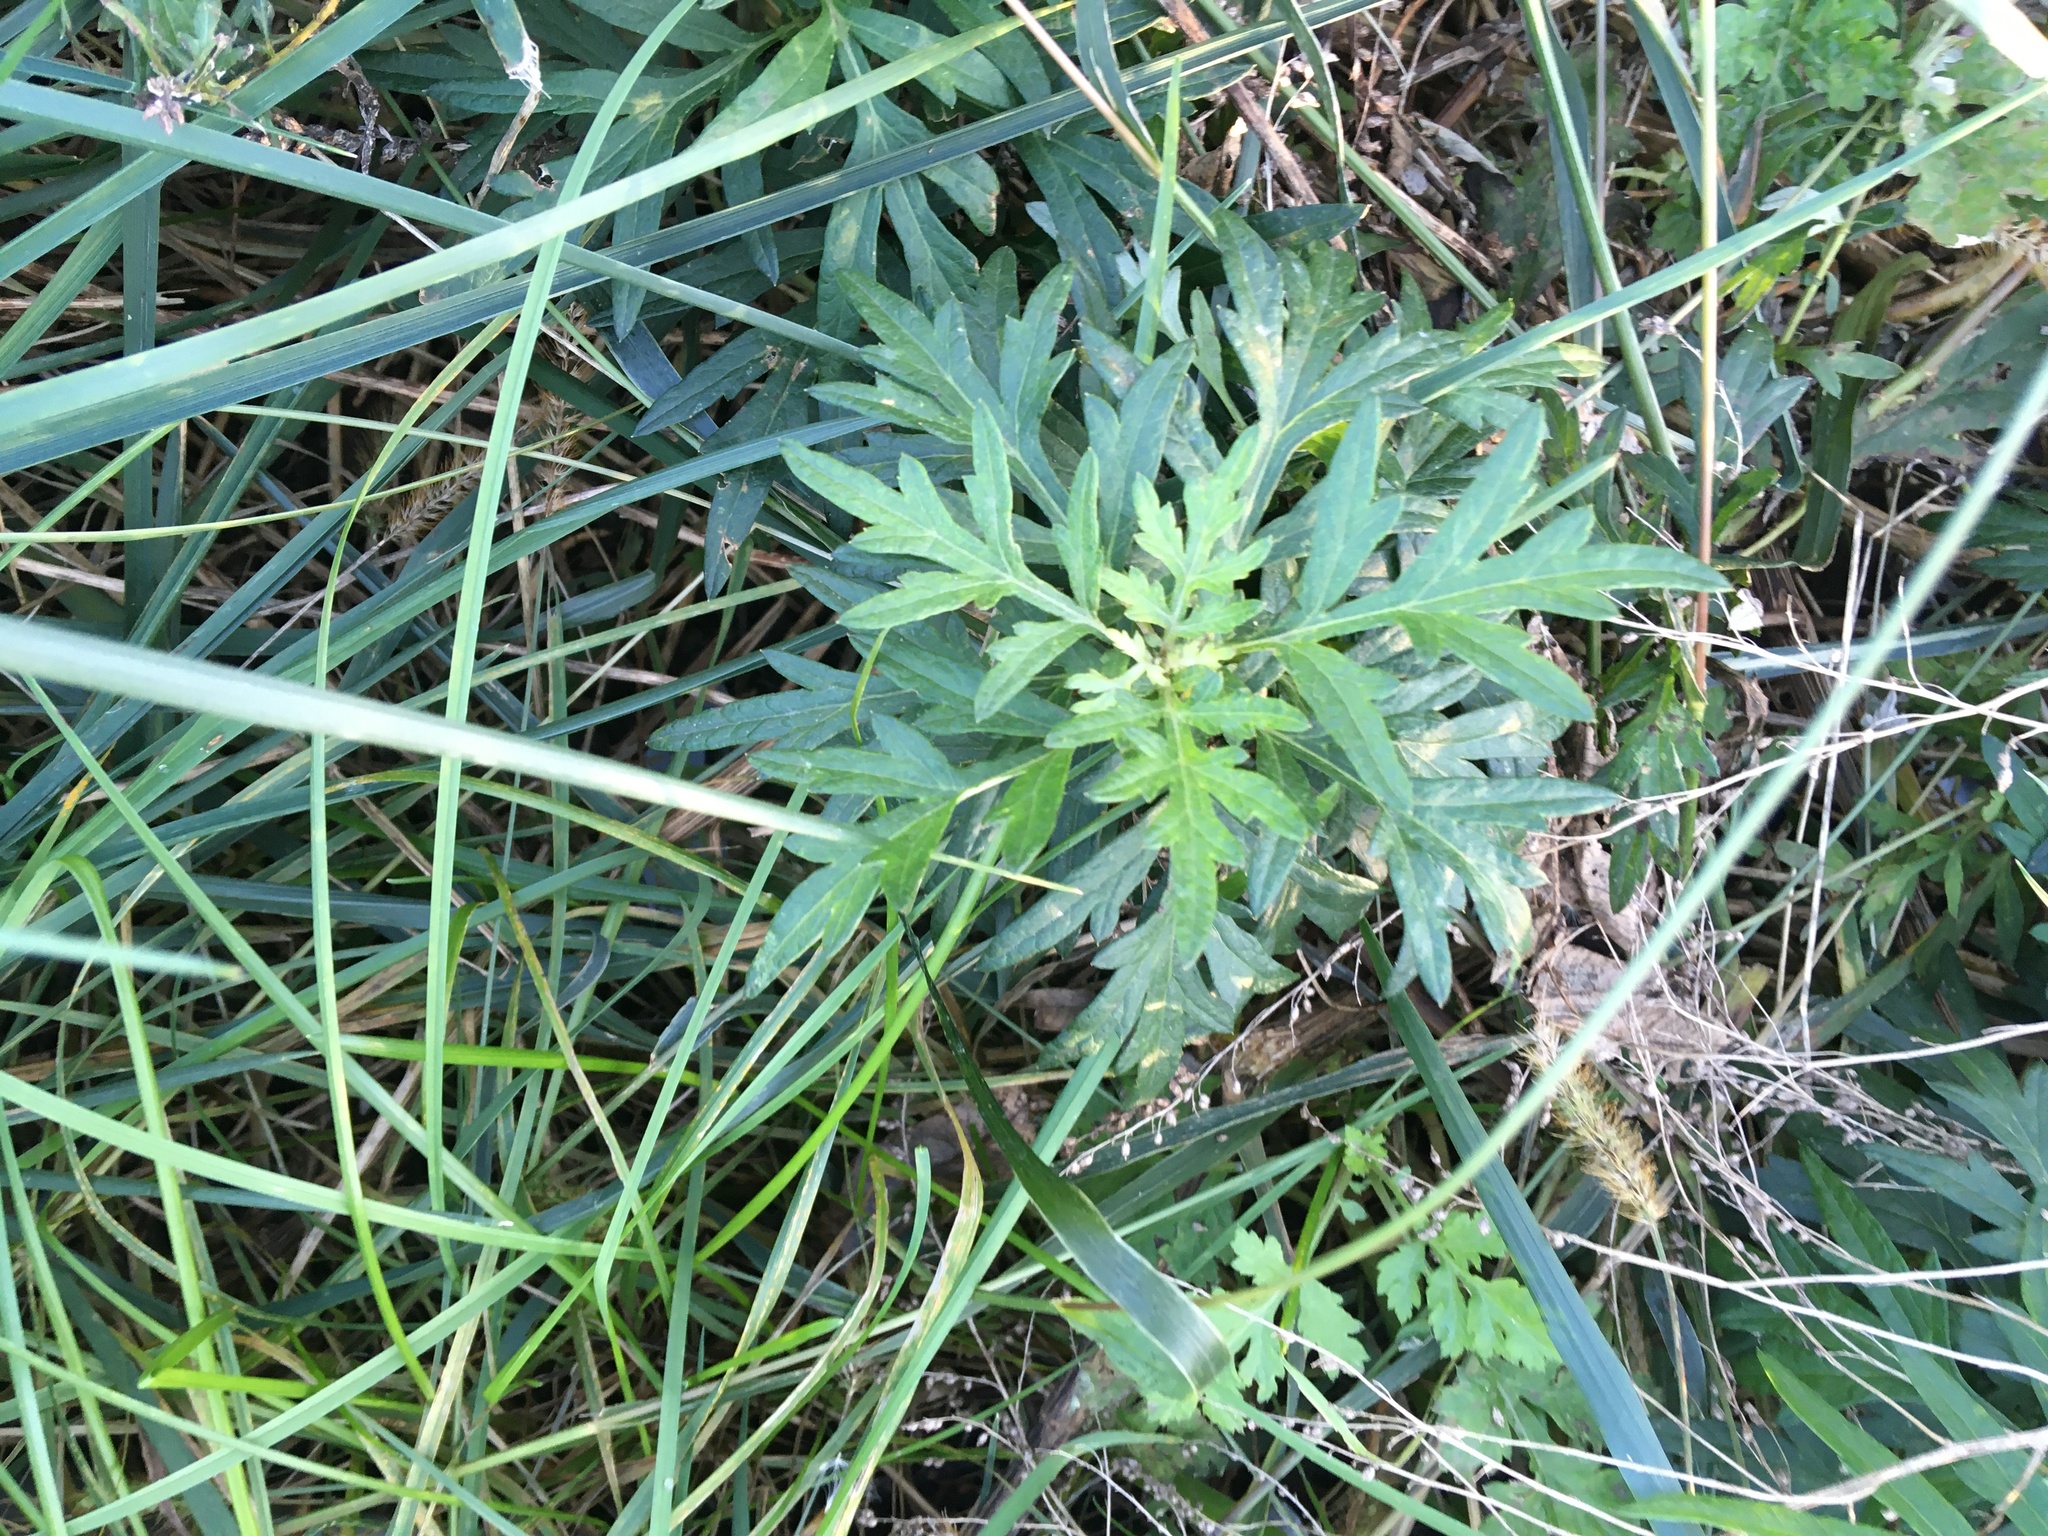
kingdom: Plantae
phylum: Tracheophyta
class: Magnoliopsida
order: Asterales
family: Asteraceae
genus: Artemisia
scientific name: Artemisia vulgaris
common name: Mugwort
